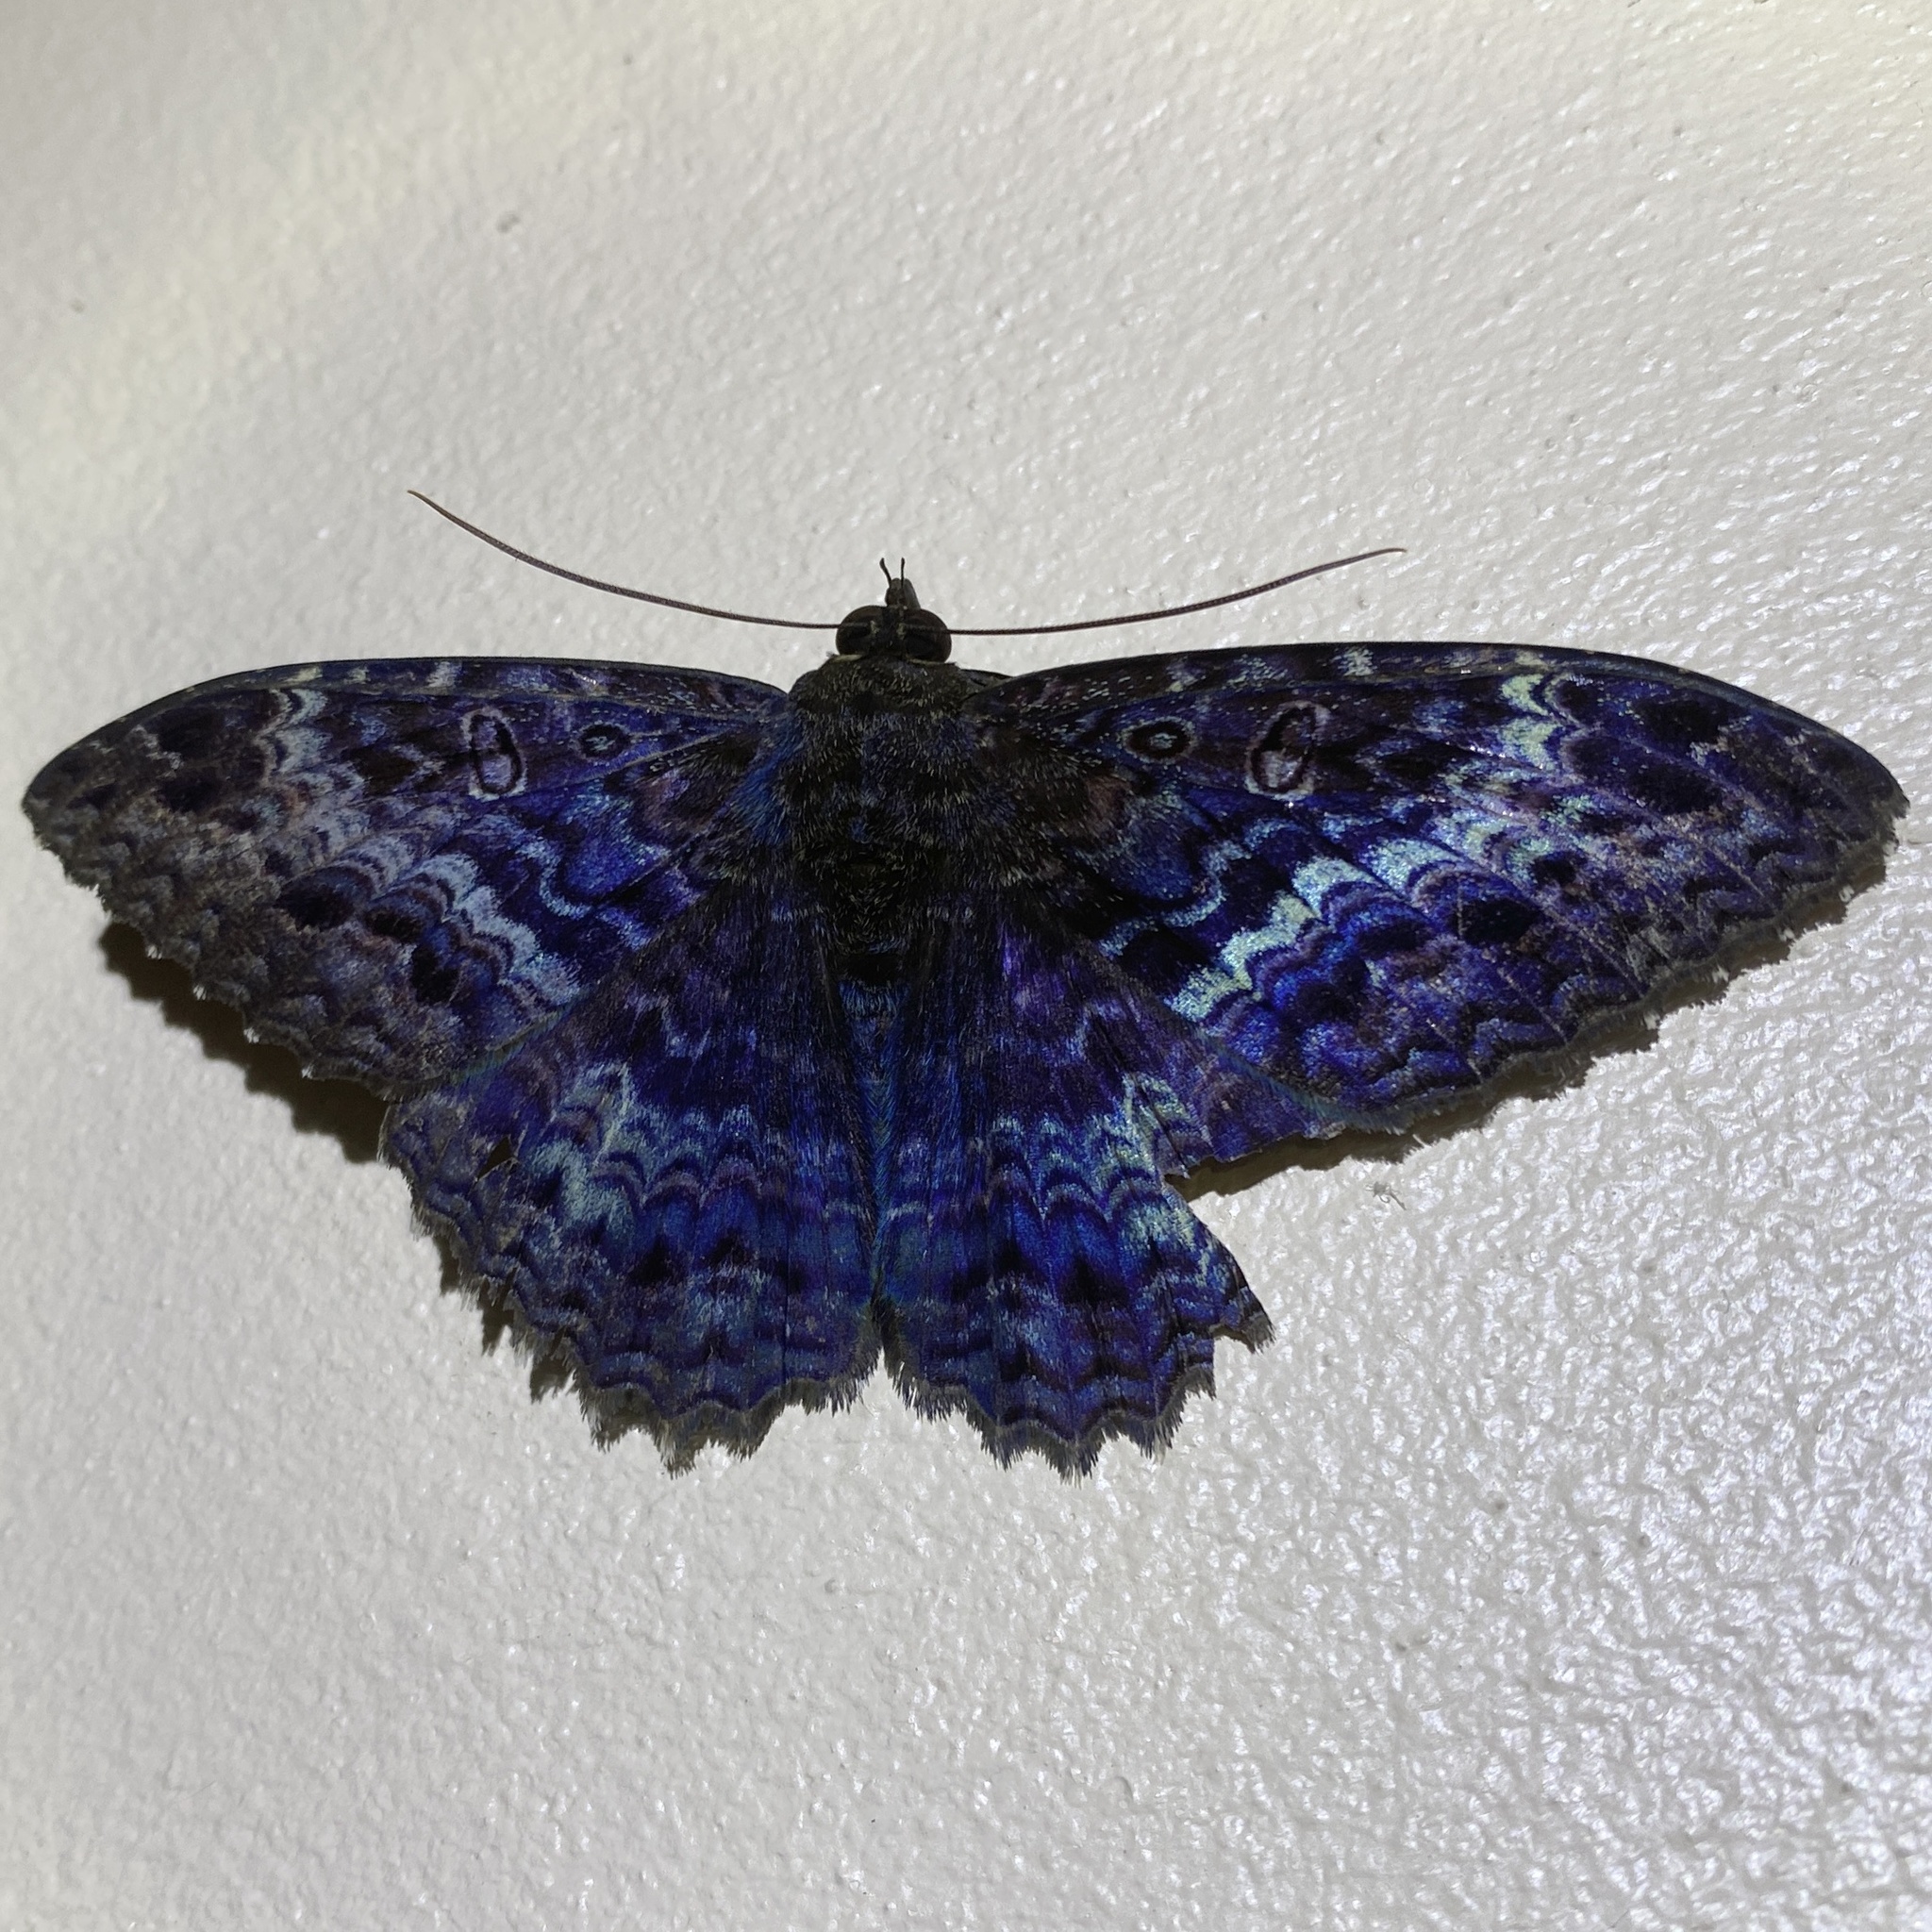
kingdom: Animalia
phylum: Arthropoda
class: Insecta
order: Lepidoptera
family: Erebidae
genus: Letis
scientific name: Letis iphianasse
